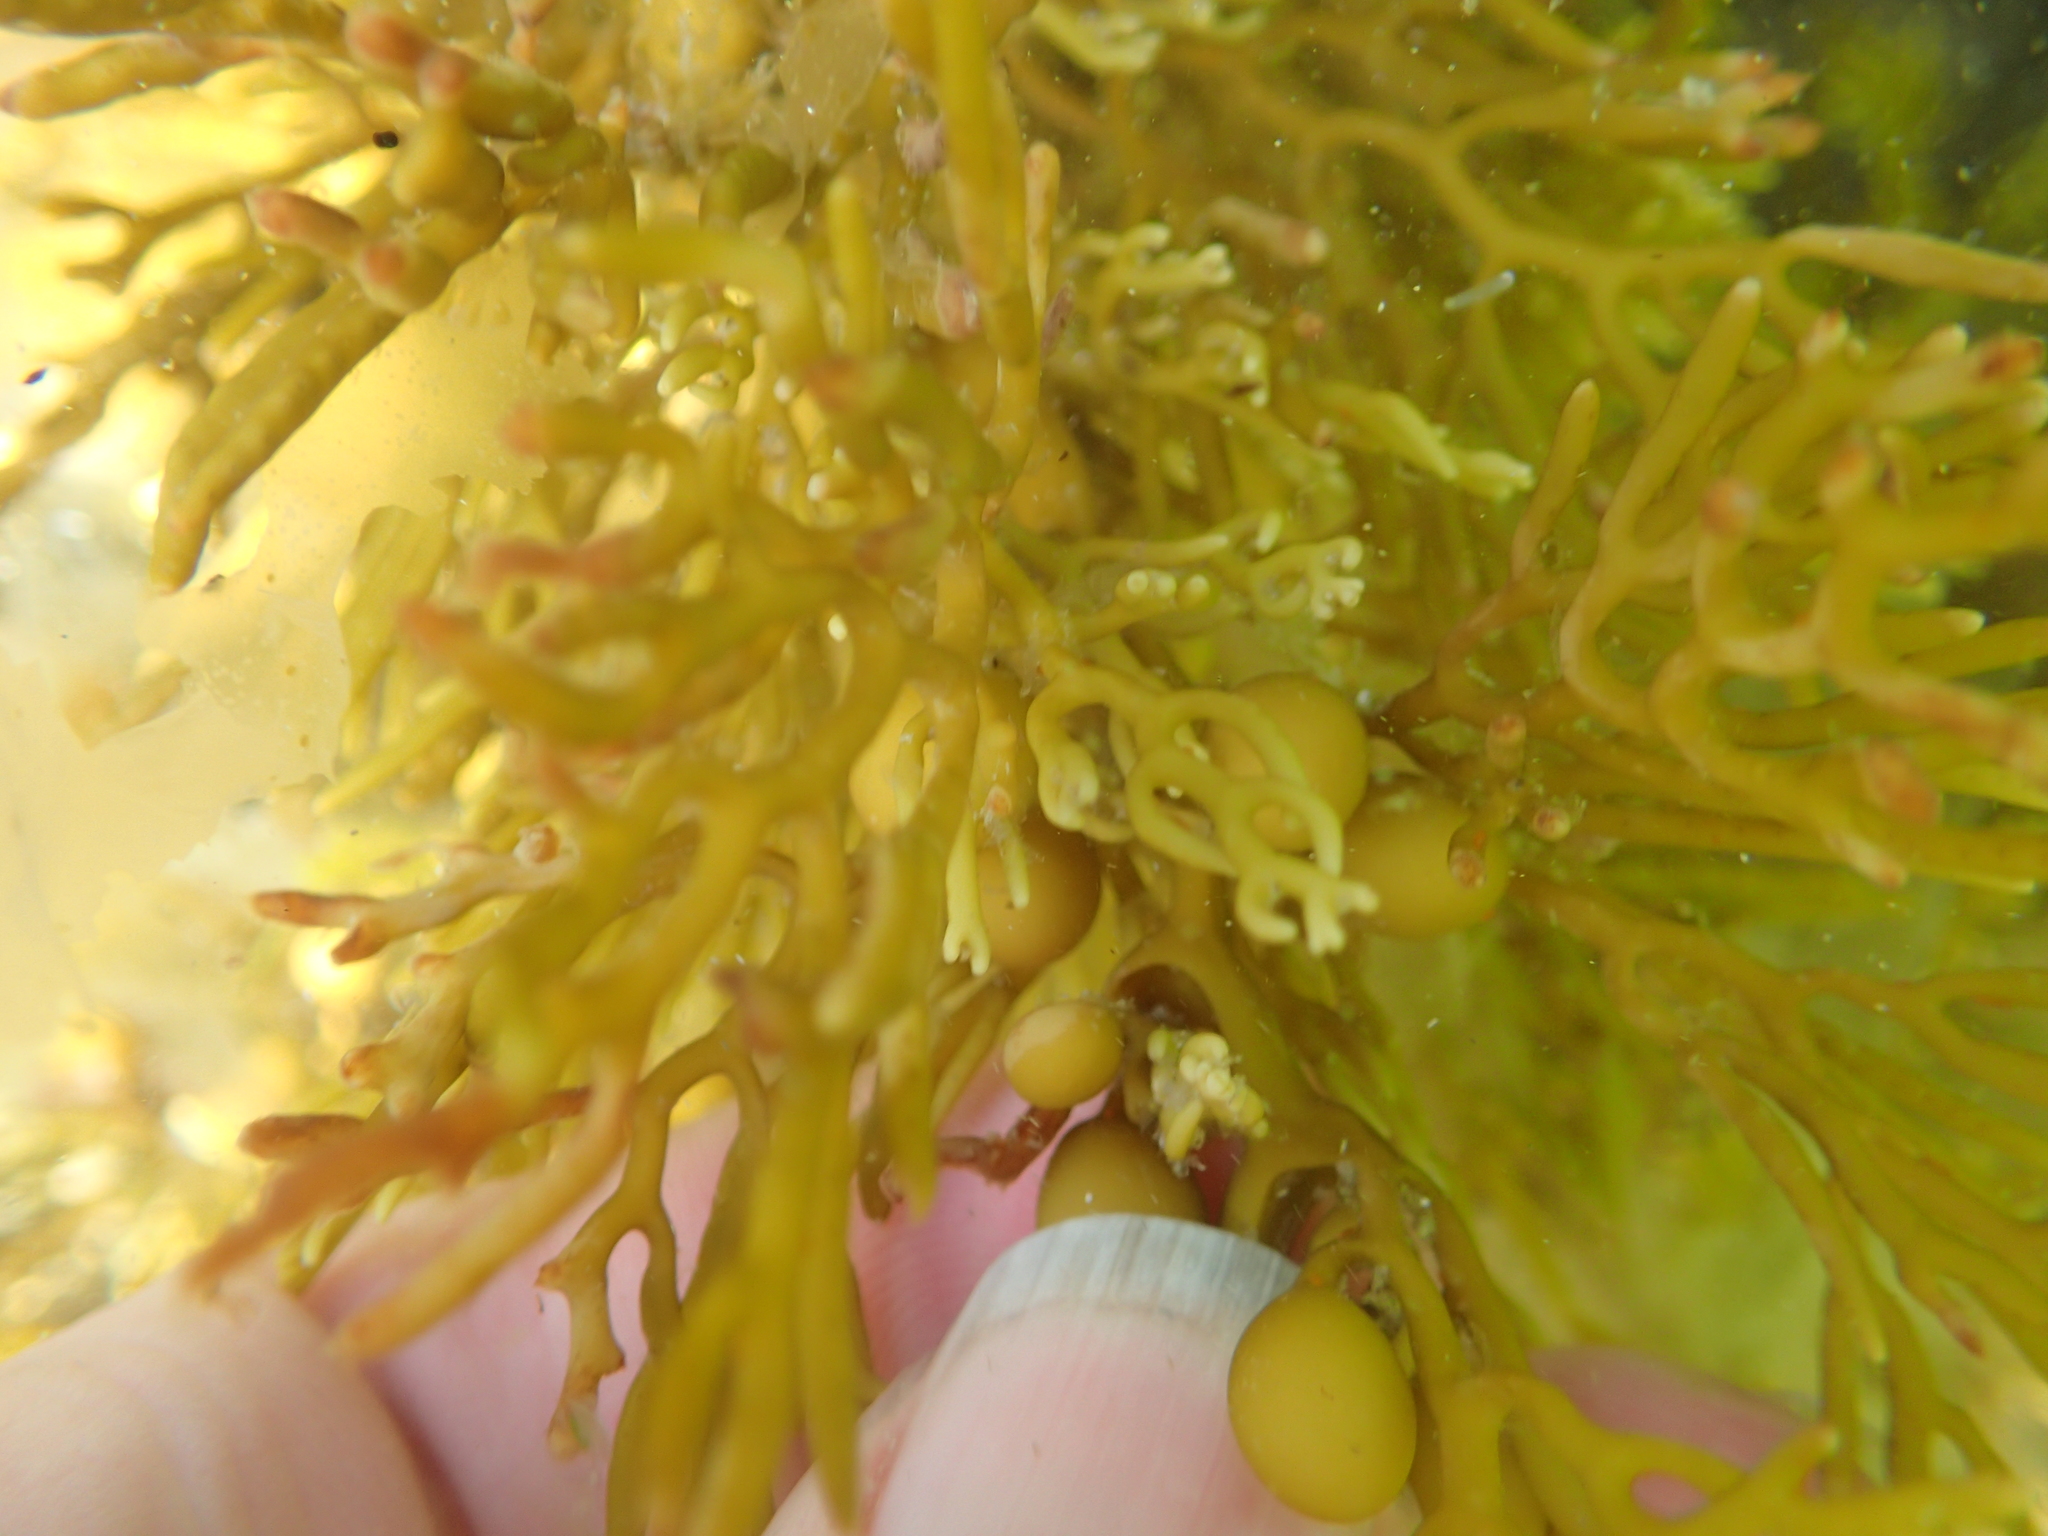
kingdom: Chromista
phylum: Ochrophyta
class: Phaeophyceae
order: Fucales
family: Sargassaceae
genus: Cystophora
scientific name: Cystophora scalaris
